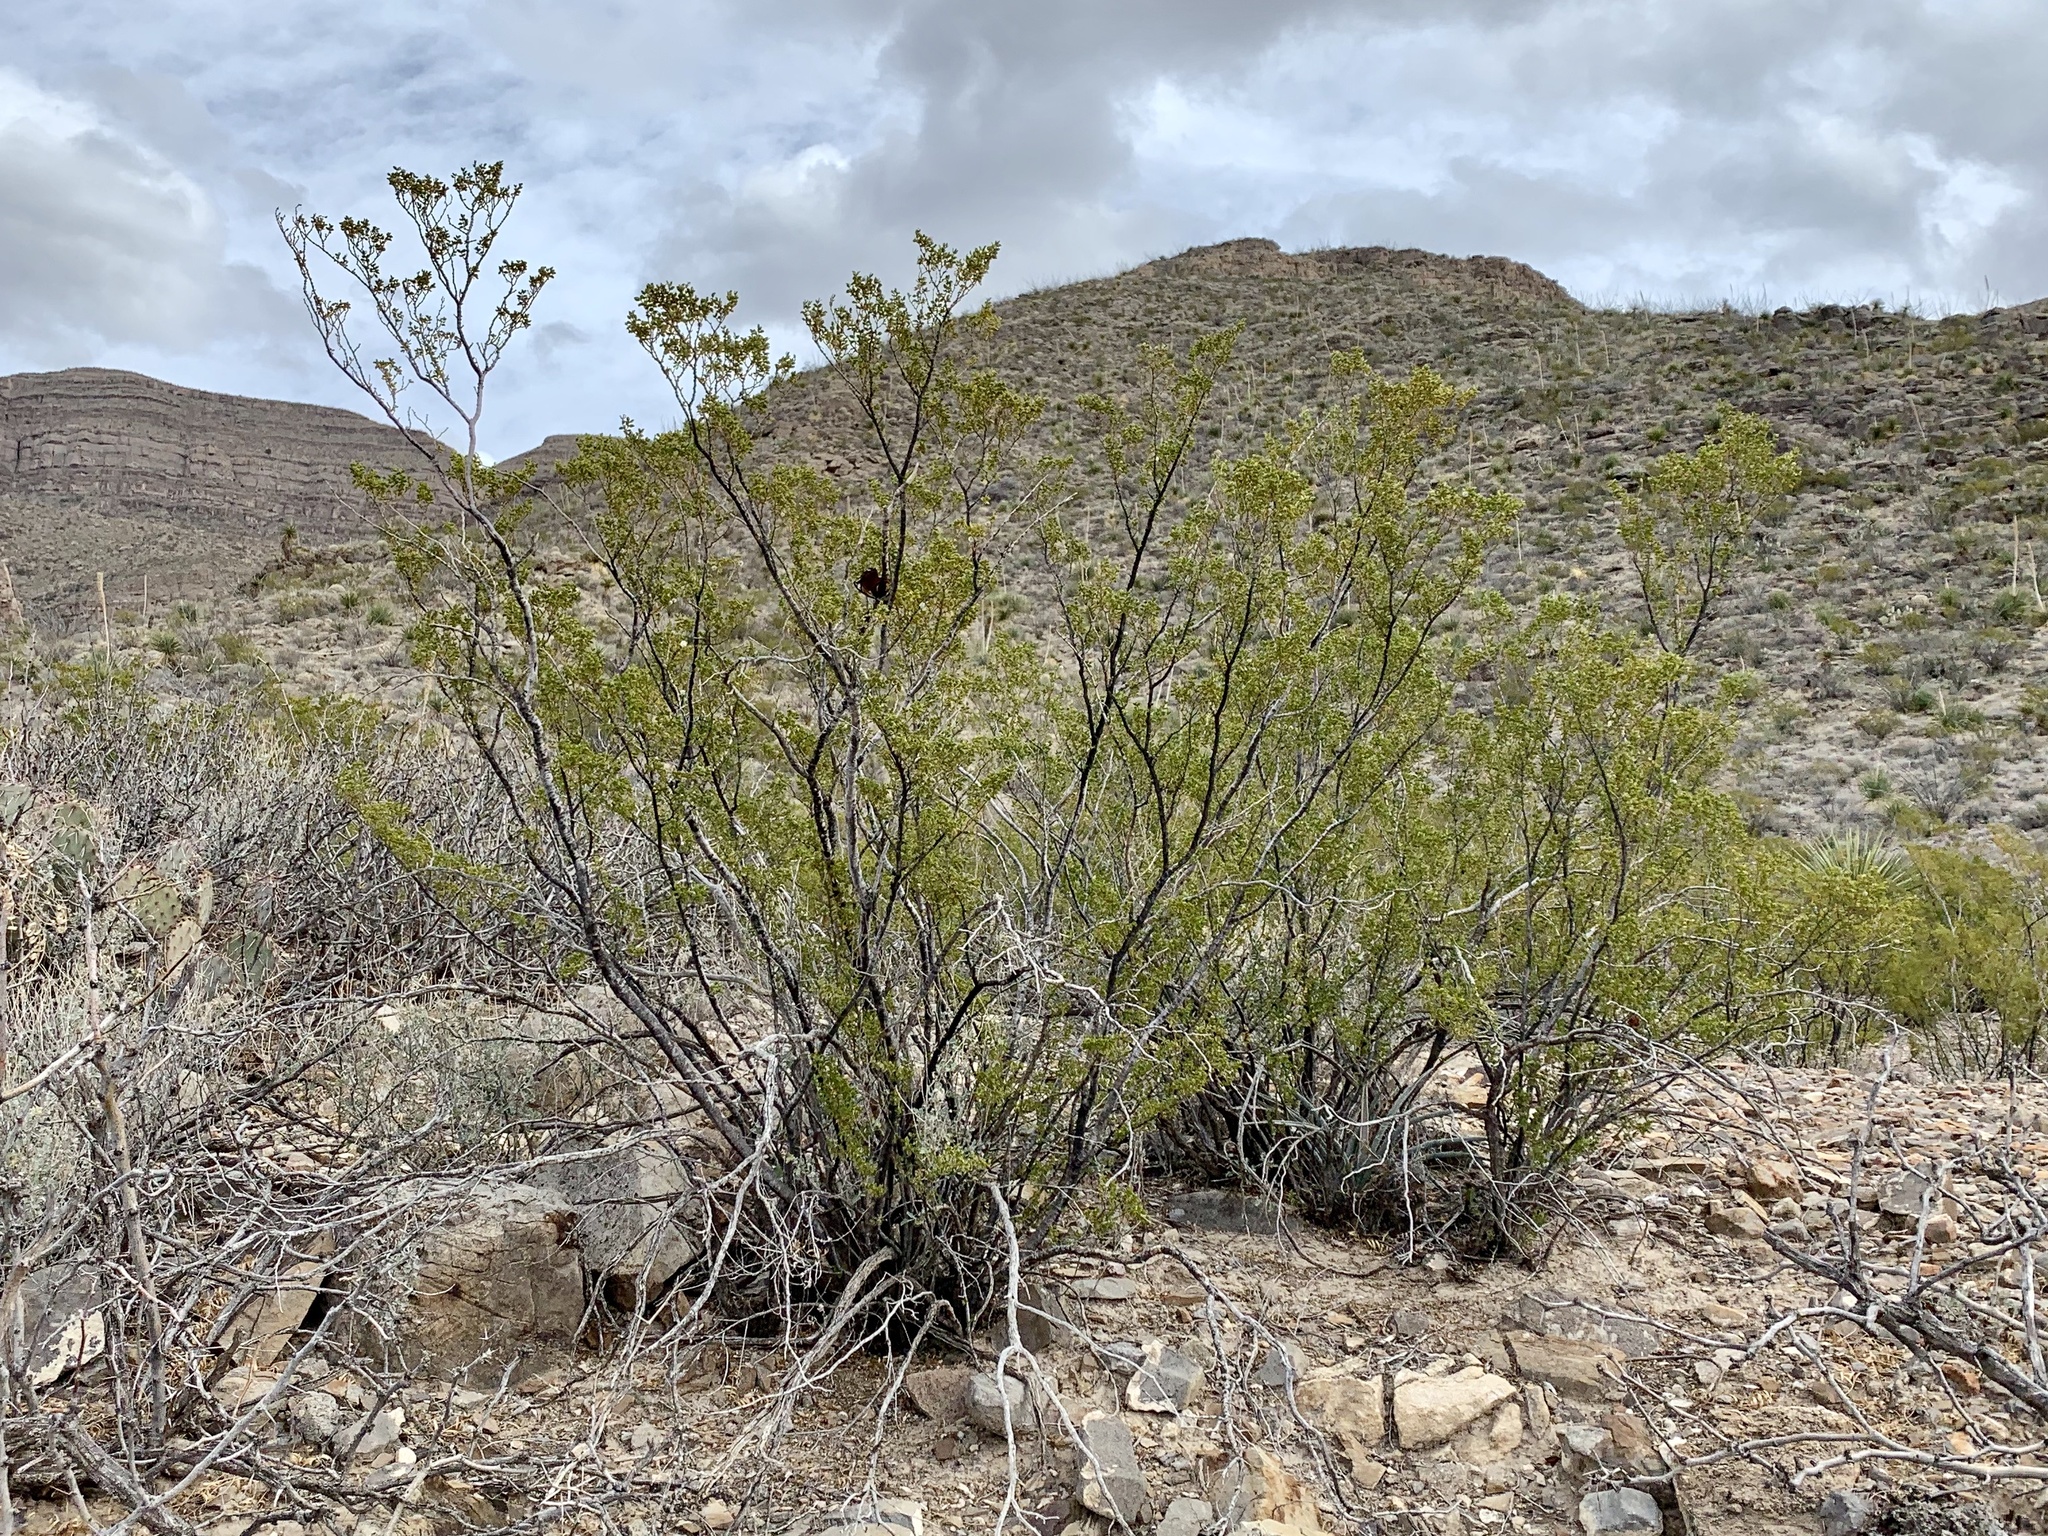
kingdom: Plantae
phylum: Tracheophyta
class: Magnoliopsida
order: Zygophyllales
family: Zygophyllaceae
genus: Larrea
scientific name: Larrea tridentata
